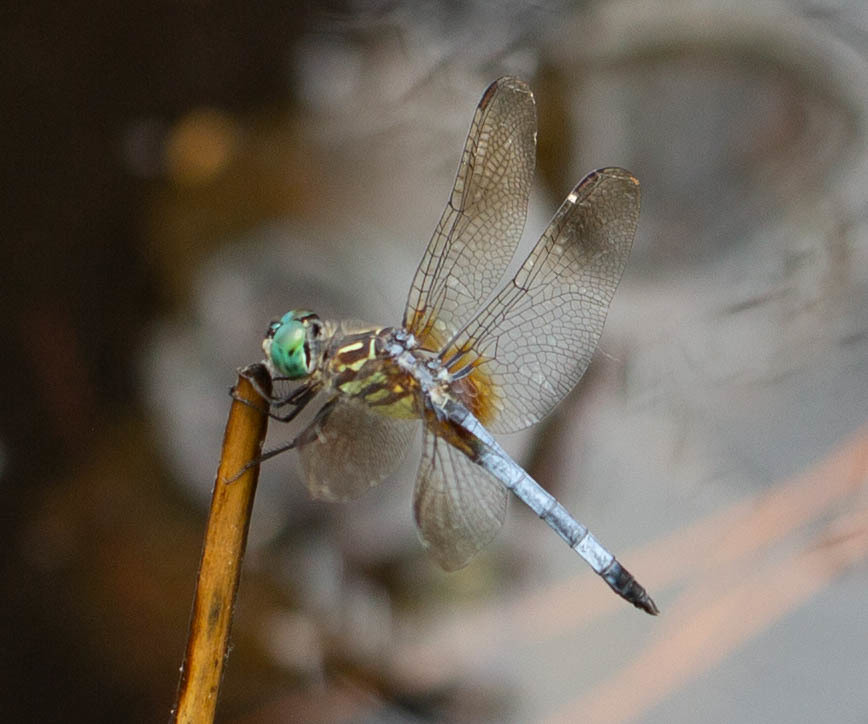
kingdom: Animalia
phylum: Arthropoda
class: Insecta
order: Odonata
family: Libellulidae
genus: Pachydiplax
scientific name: Pachydiplax longipennis
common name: Blue dasher
